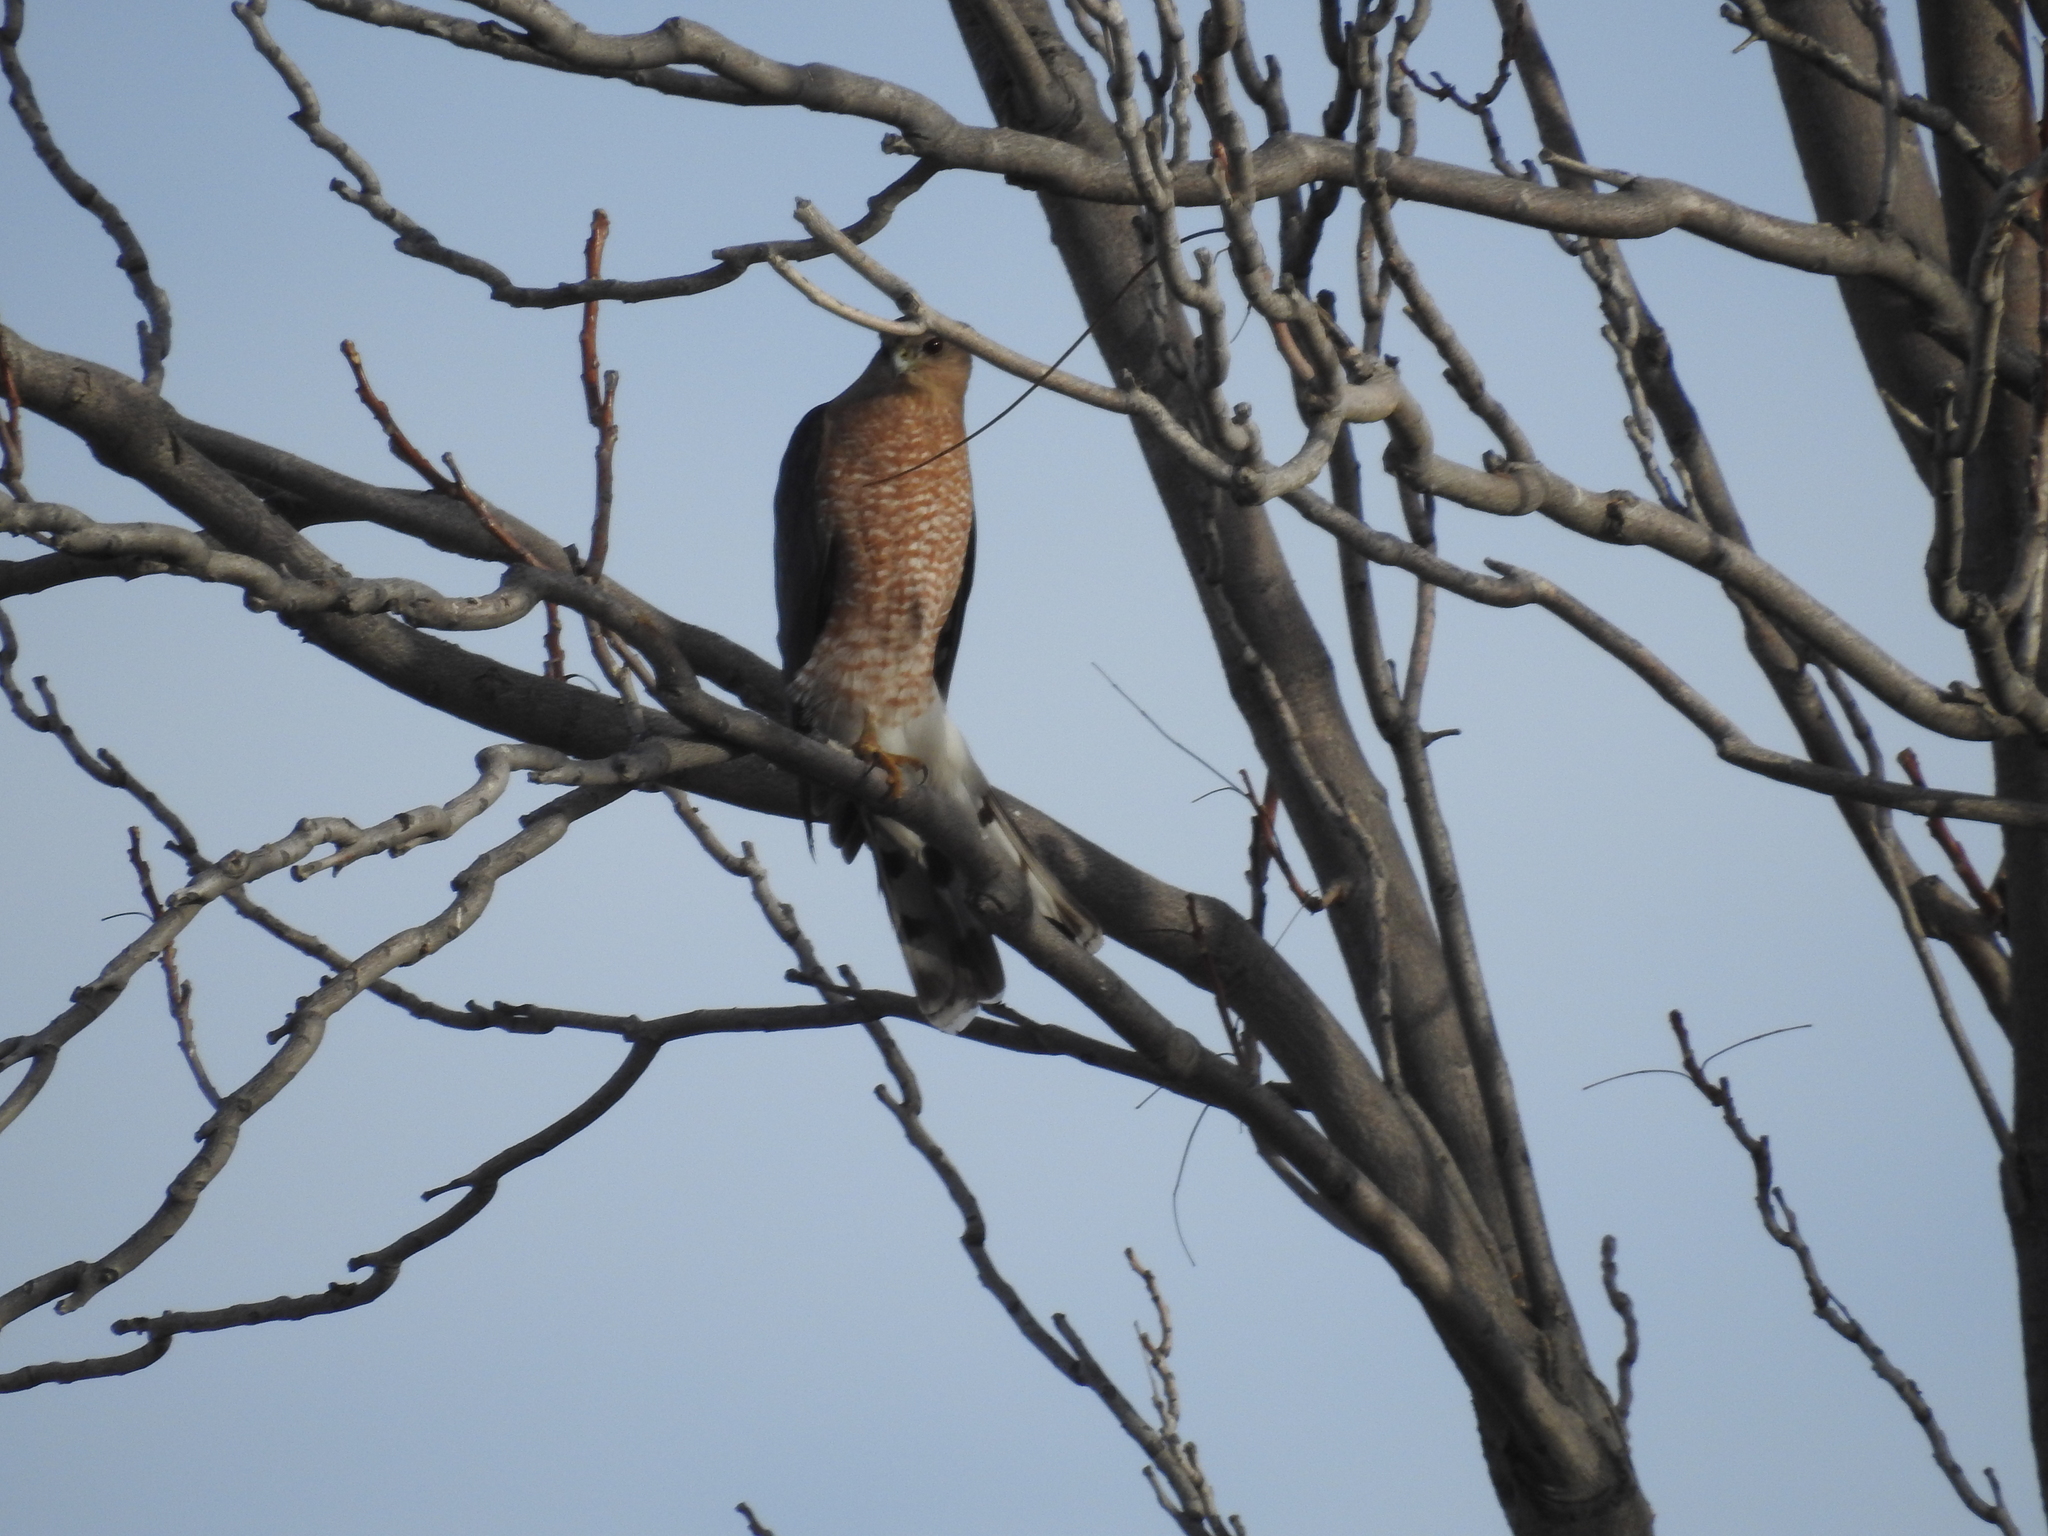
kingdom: Animalia
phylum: Chordata
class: Aves
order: Accipitriformes
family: Accipitridae
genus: Accipiter
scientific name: Accipiter cooperii
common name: Cooper's hawk
